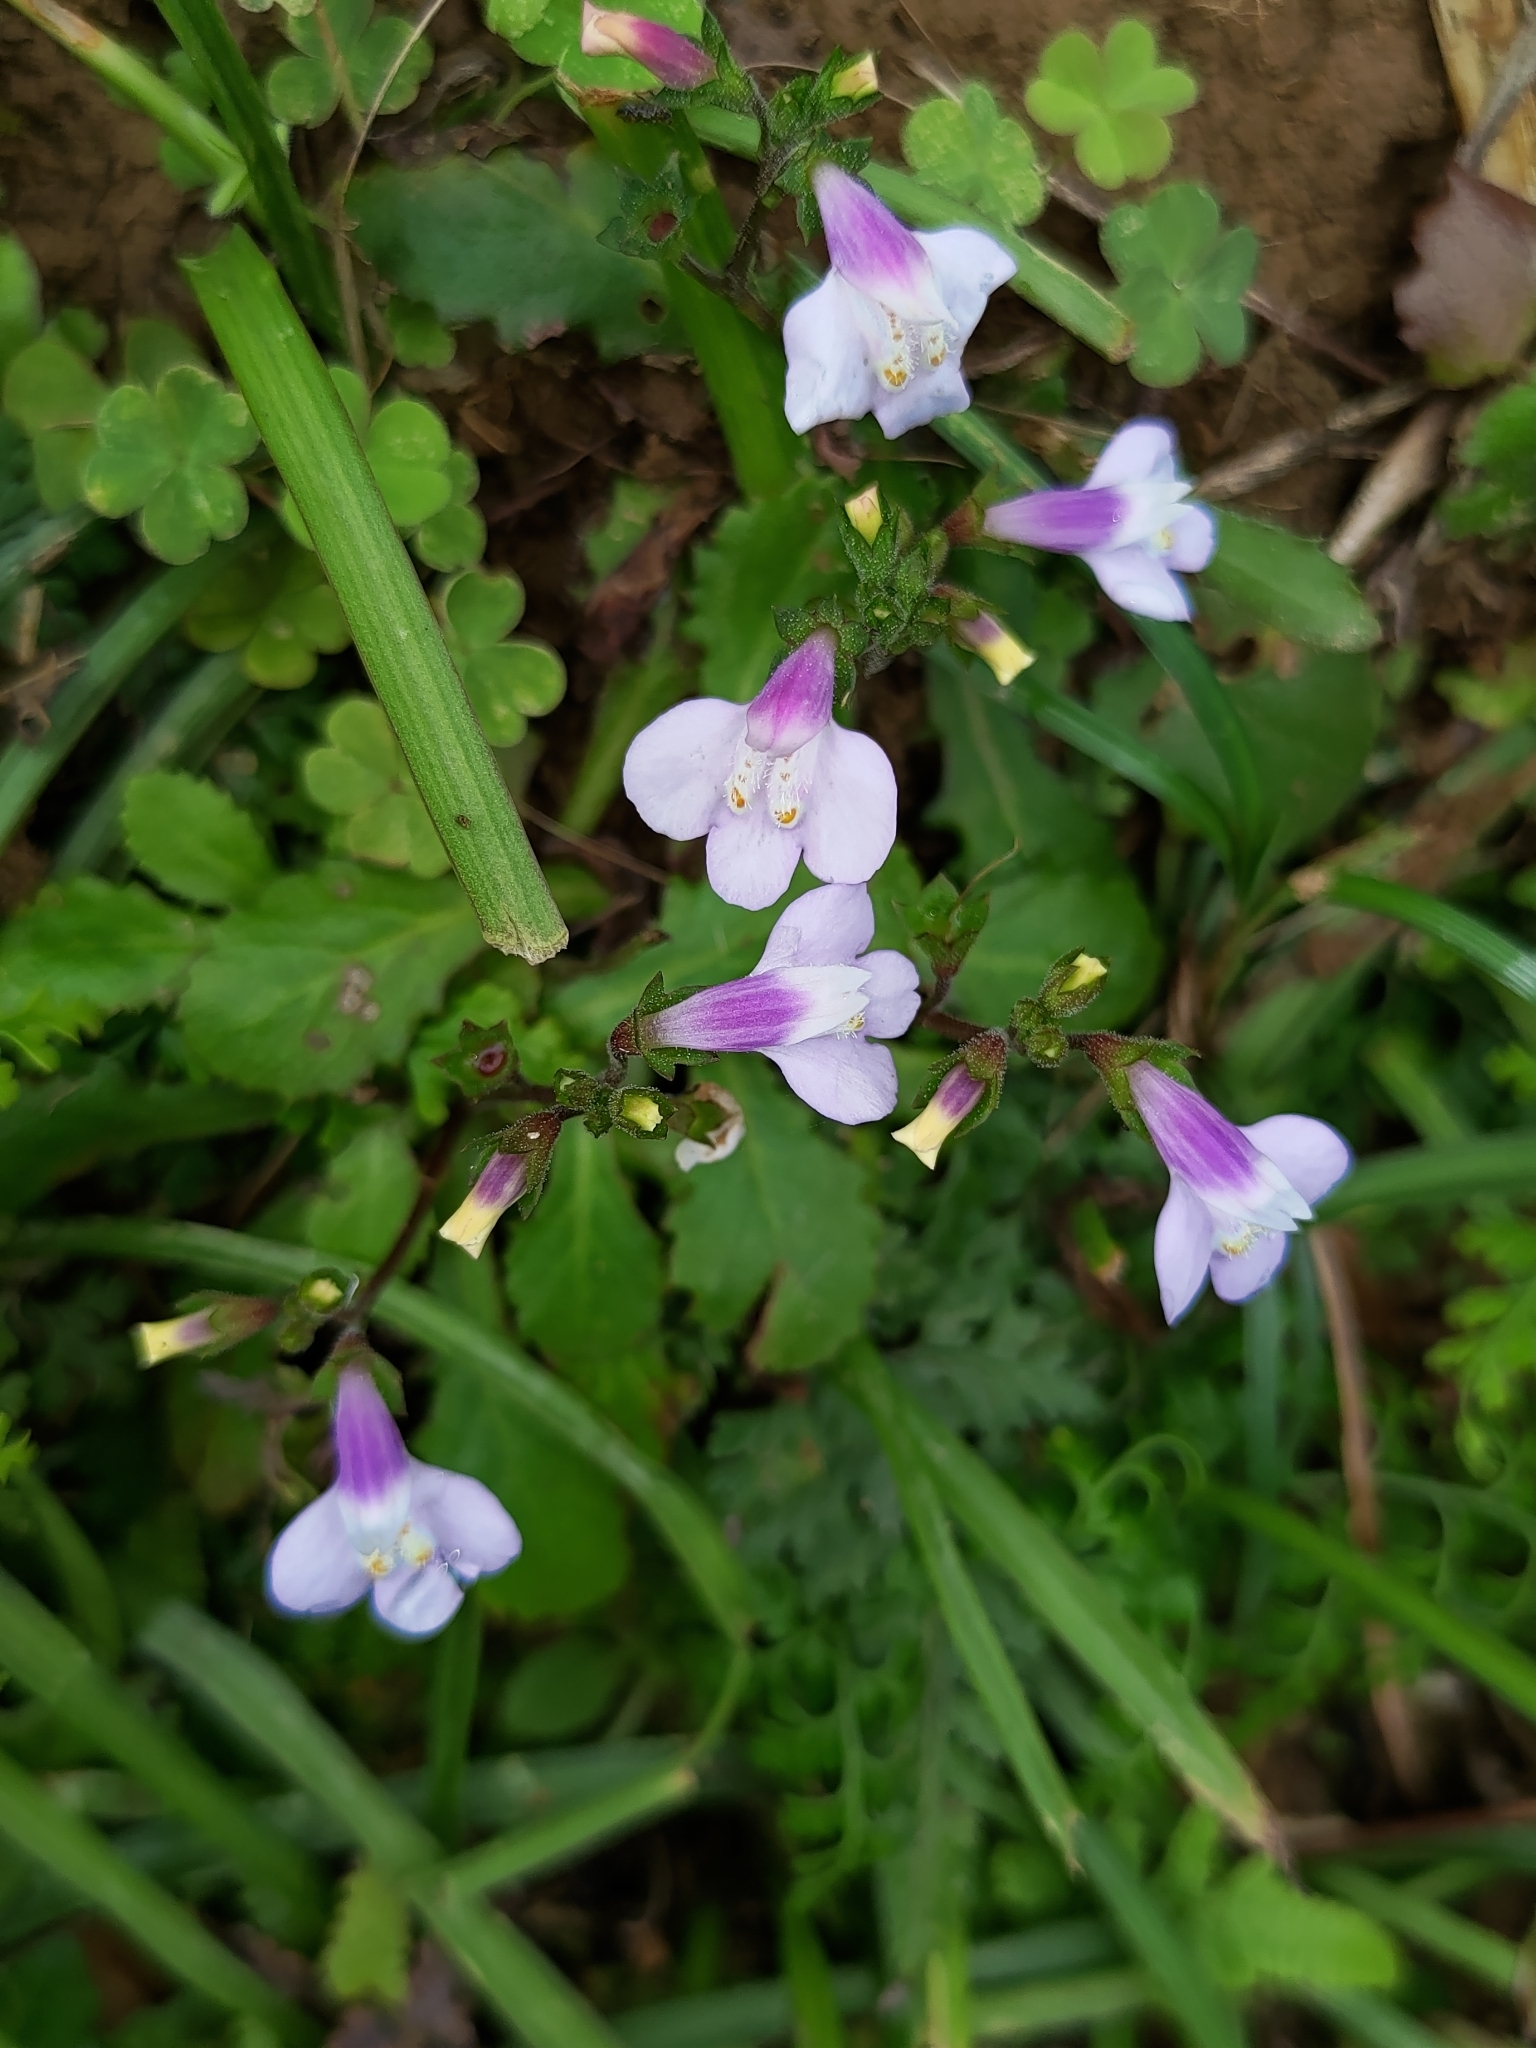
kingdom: Plantae
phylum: Tracheophyta
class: Magnoliopsida
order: Lamiales
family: Mazaceae
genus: Mazus
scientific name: Mazus fauriei
